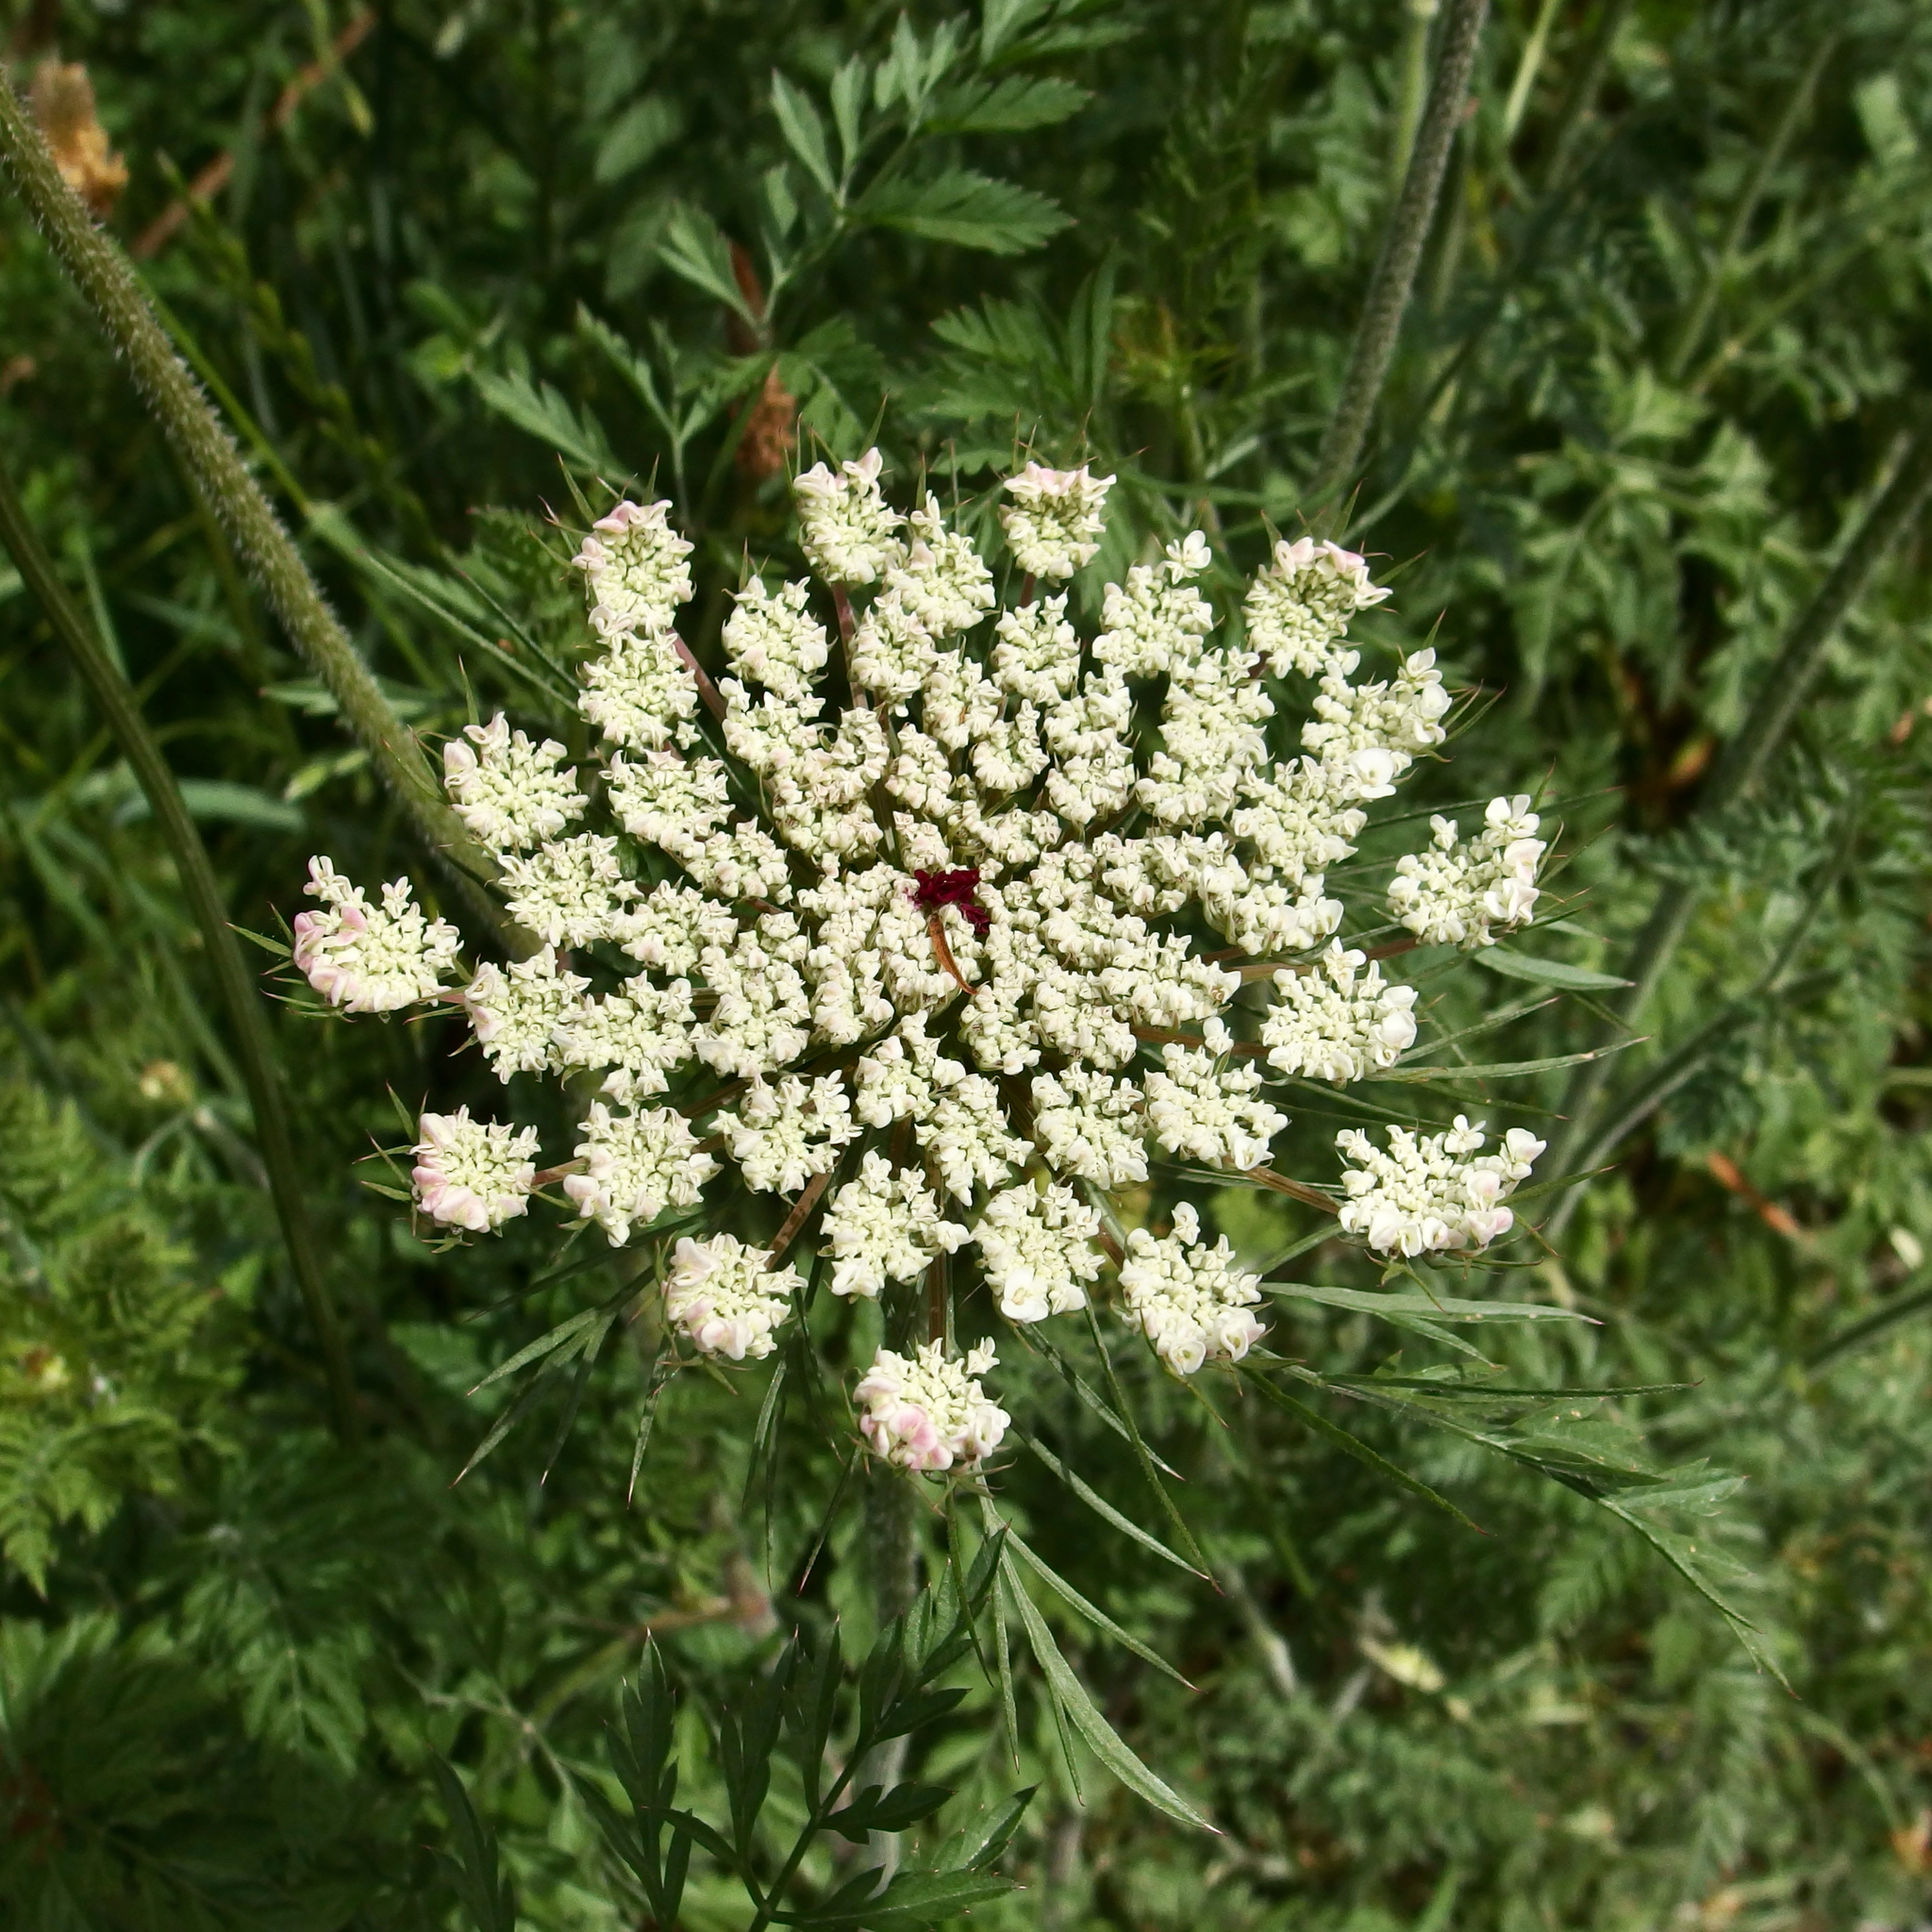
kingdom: Plantae
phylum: Tracheophyta
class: Magnoliopsida
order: Apiales
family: Apiaceae
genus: Daucus
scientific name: Daucus carota
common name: Wild carrot
